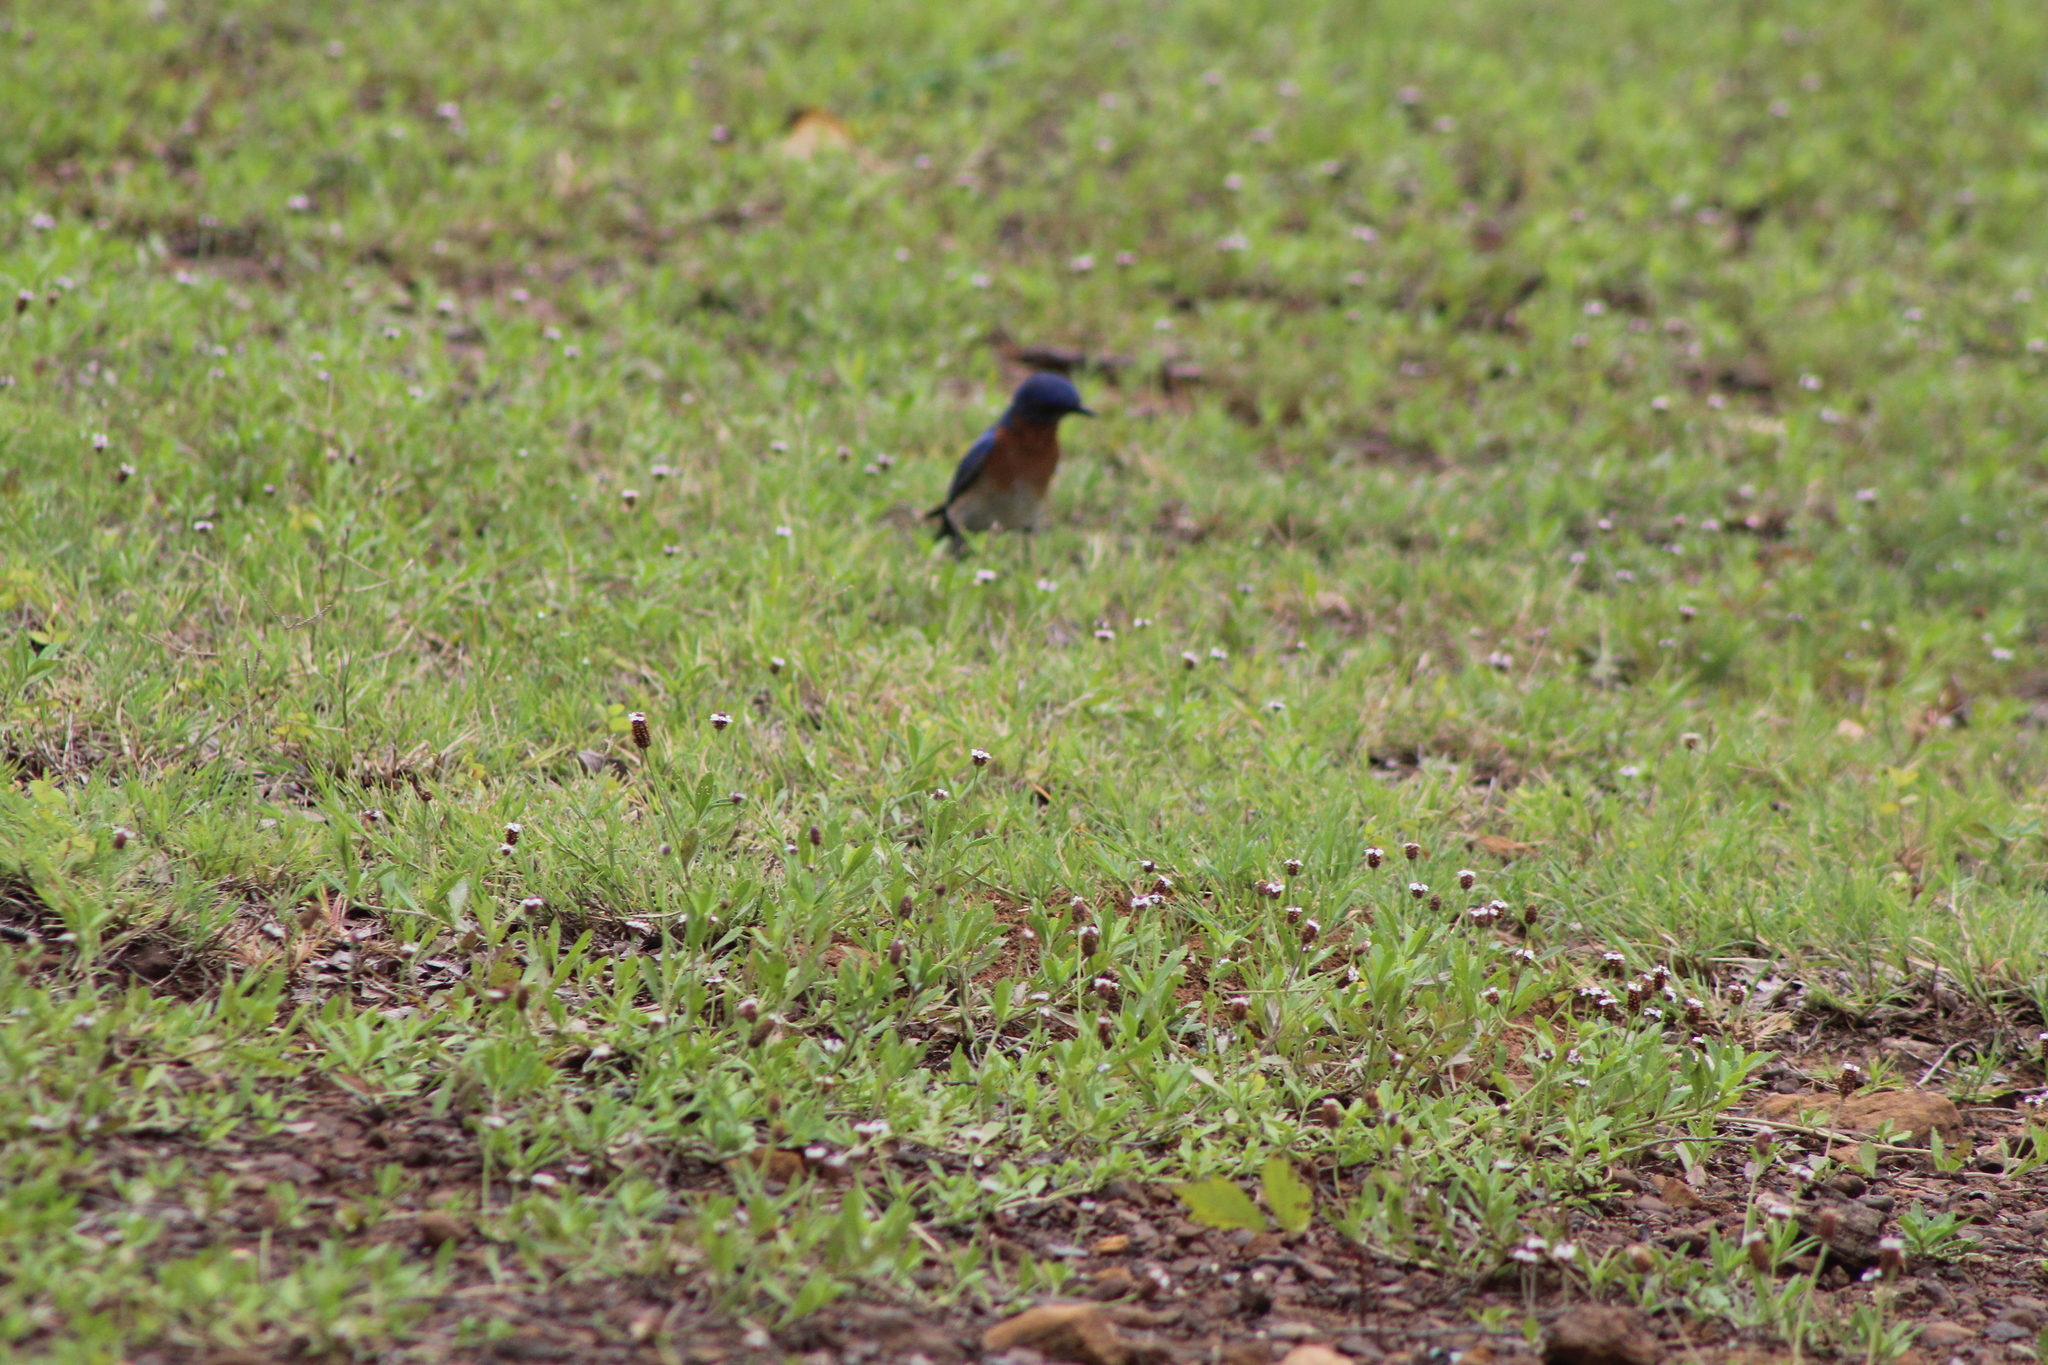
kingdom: Animalia
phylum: Chordata
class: Aves
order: Passeriformes
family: Turdidae
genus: Sialia
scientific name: Sialia sialis
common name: Eastern bluebird
